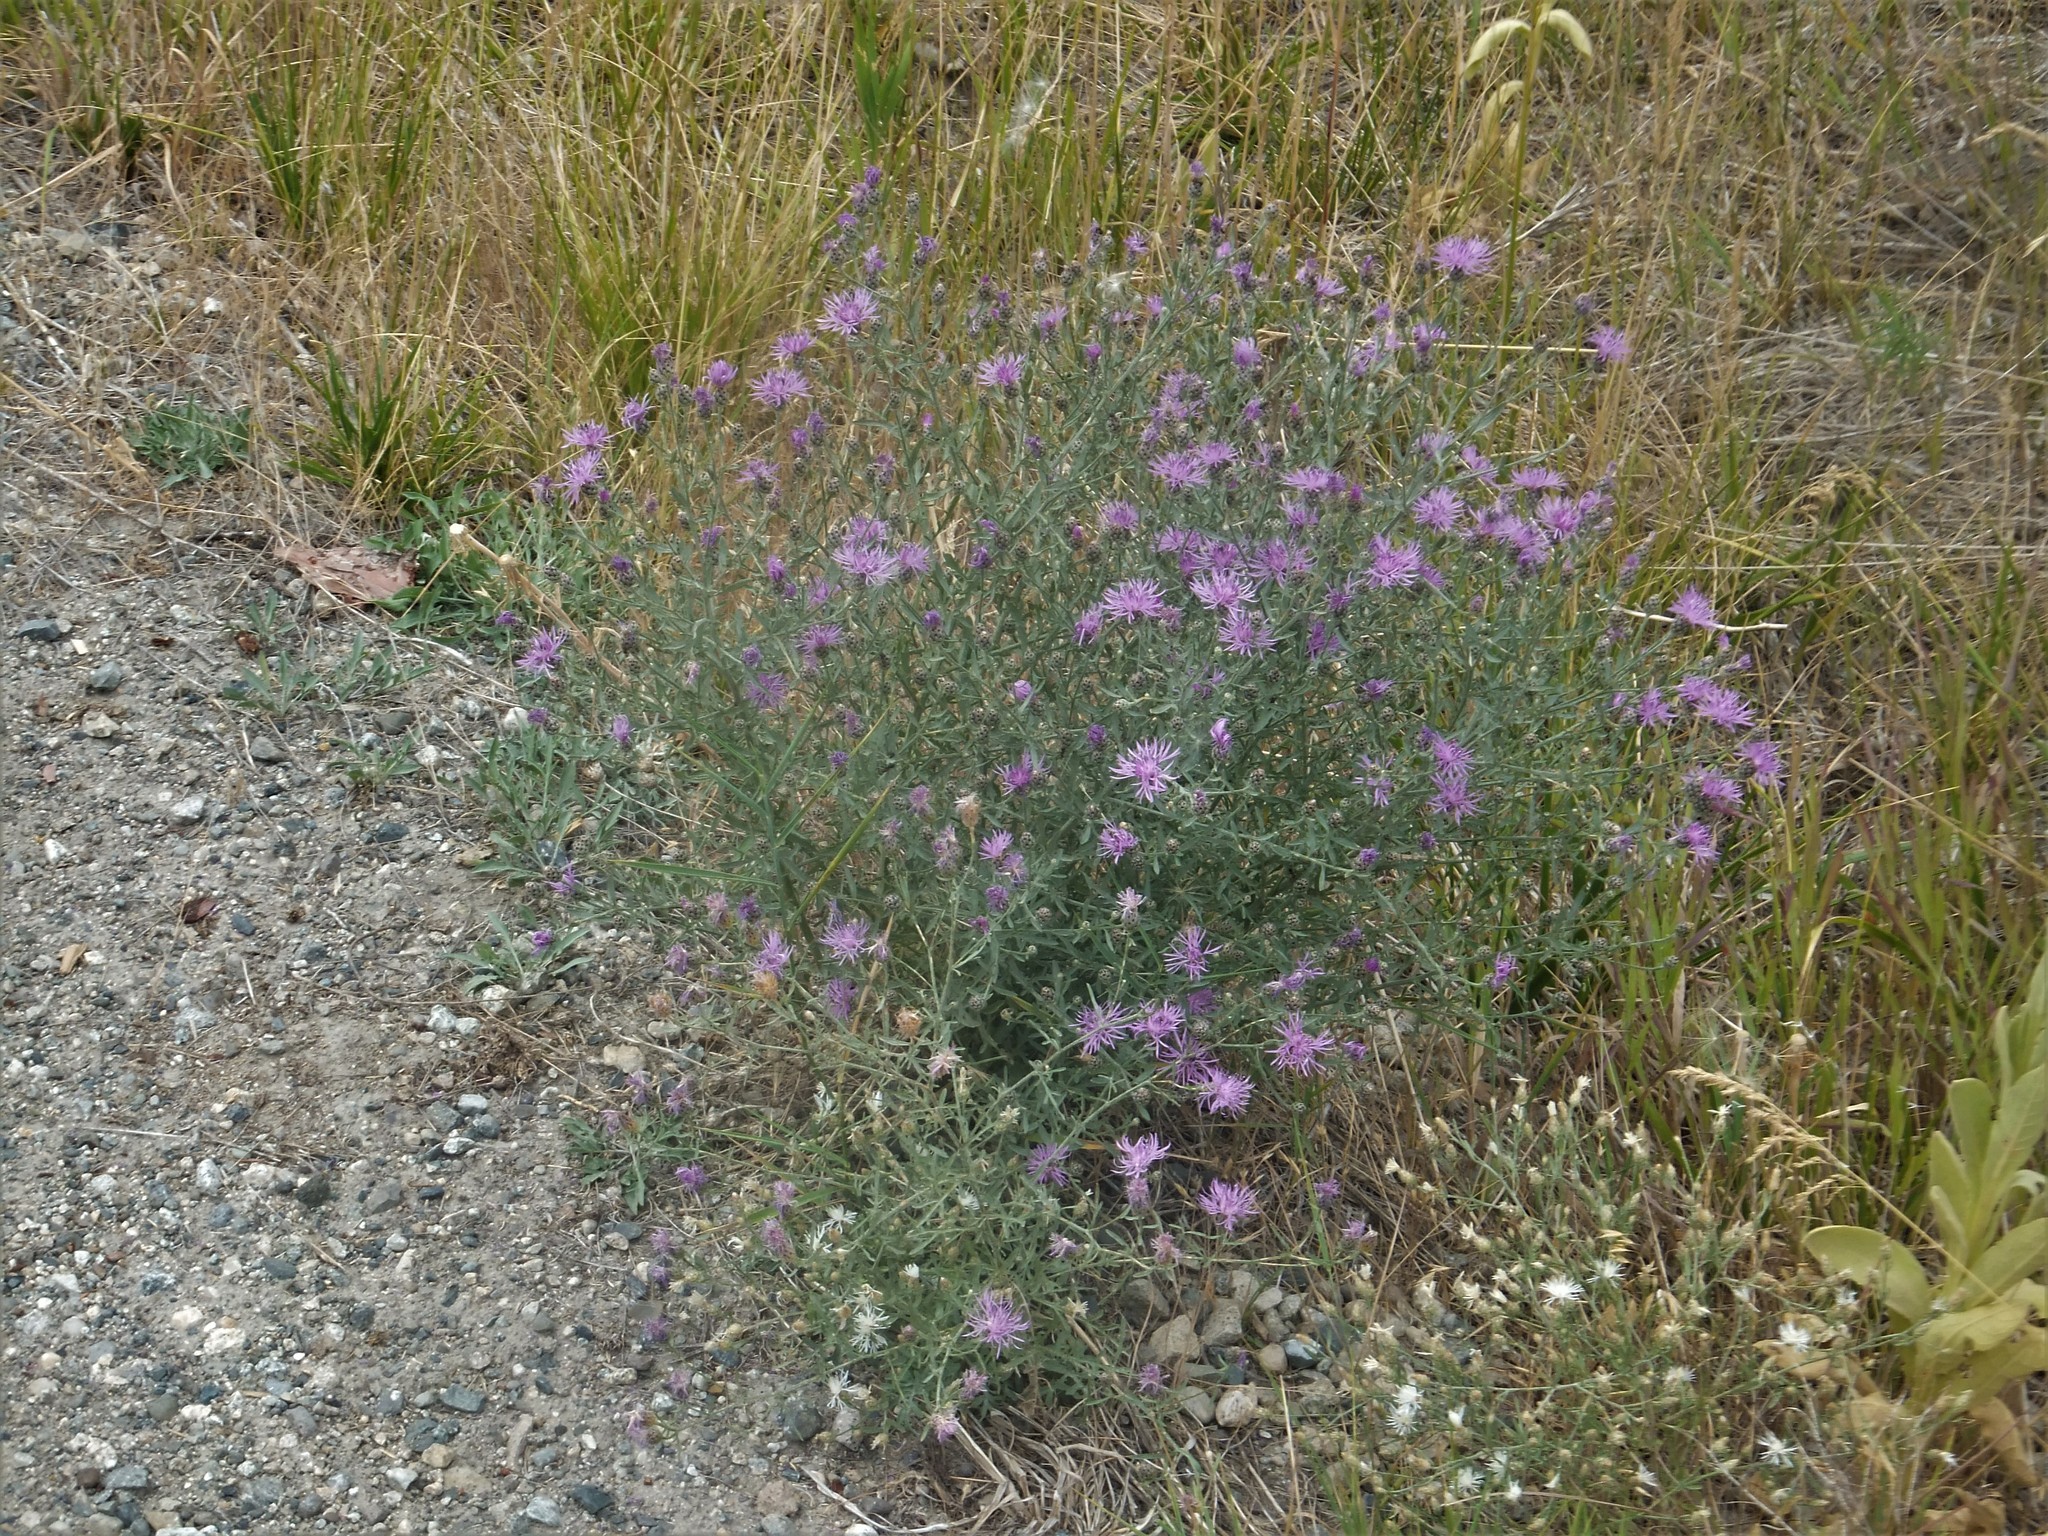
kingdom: Plantae
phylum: Tracheophyta
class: Magnoliopsida
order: Asterales
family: Asteraceae
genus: Centaurea
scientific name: Centaurea stoebe
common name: Spotted knapweed
